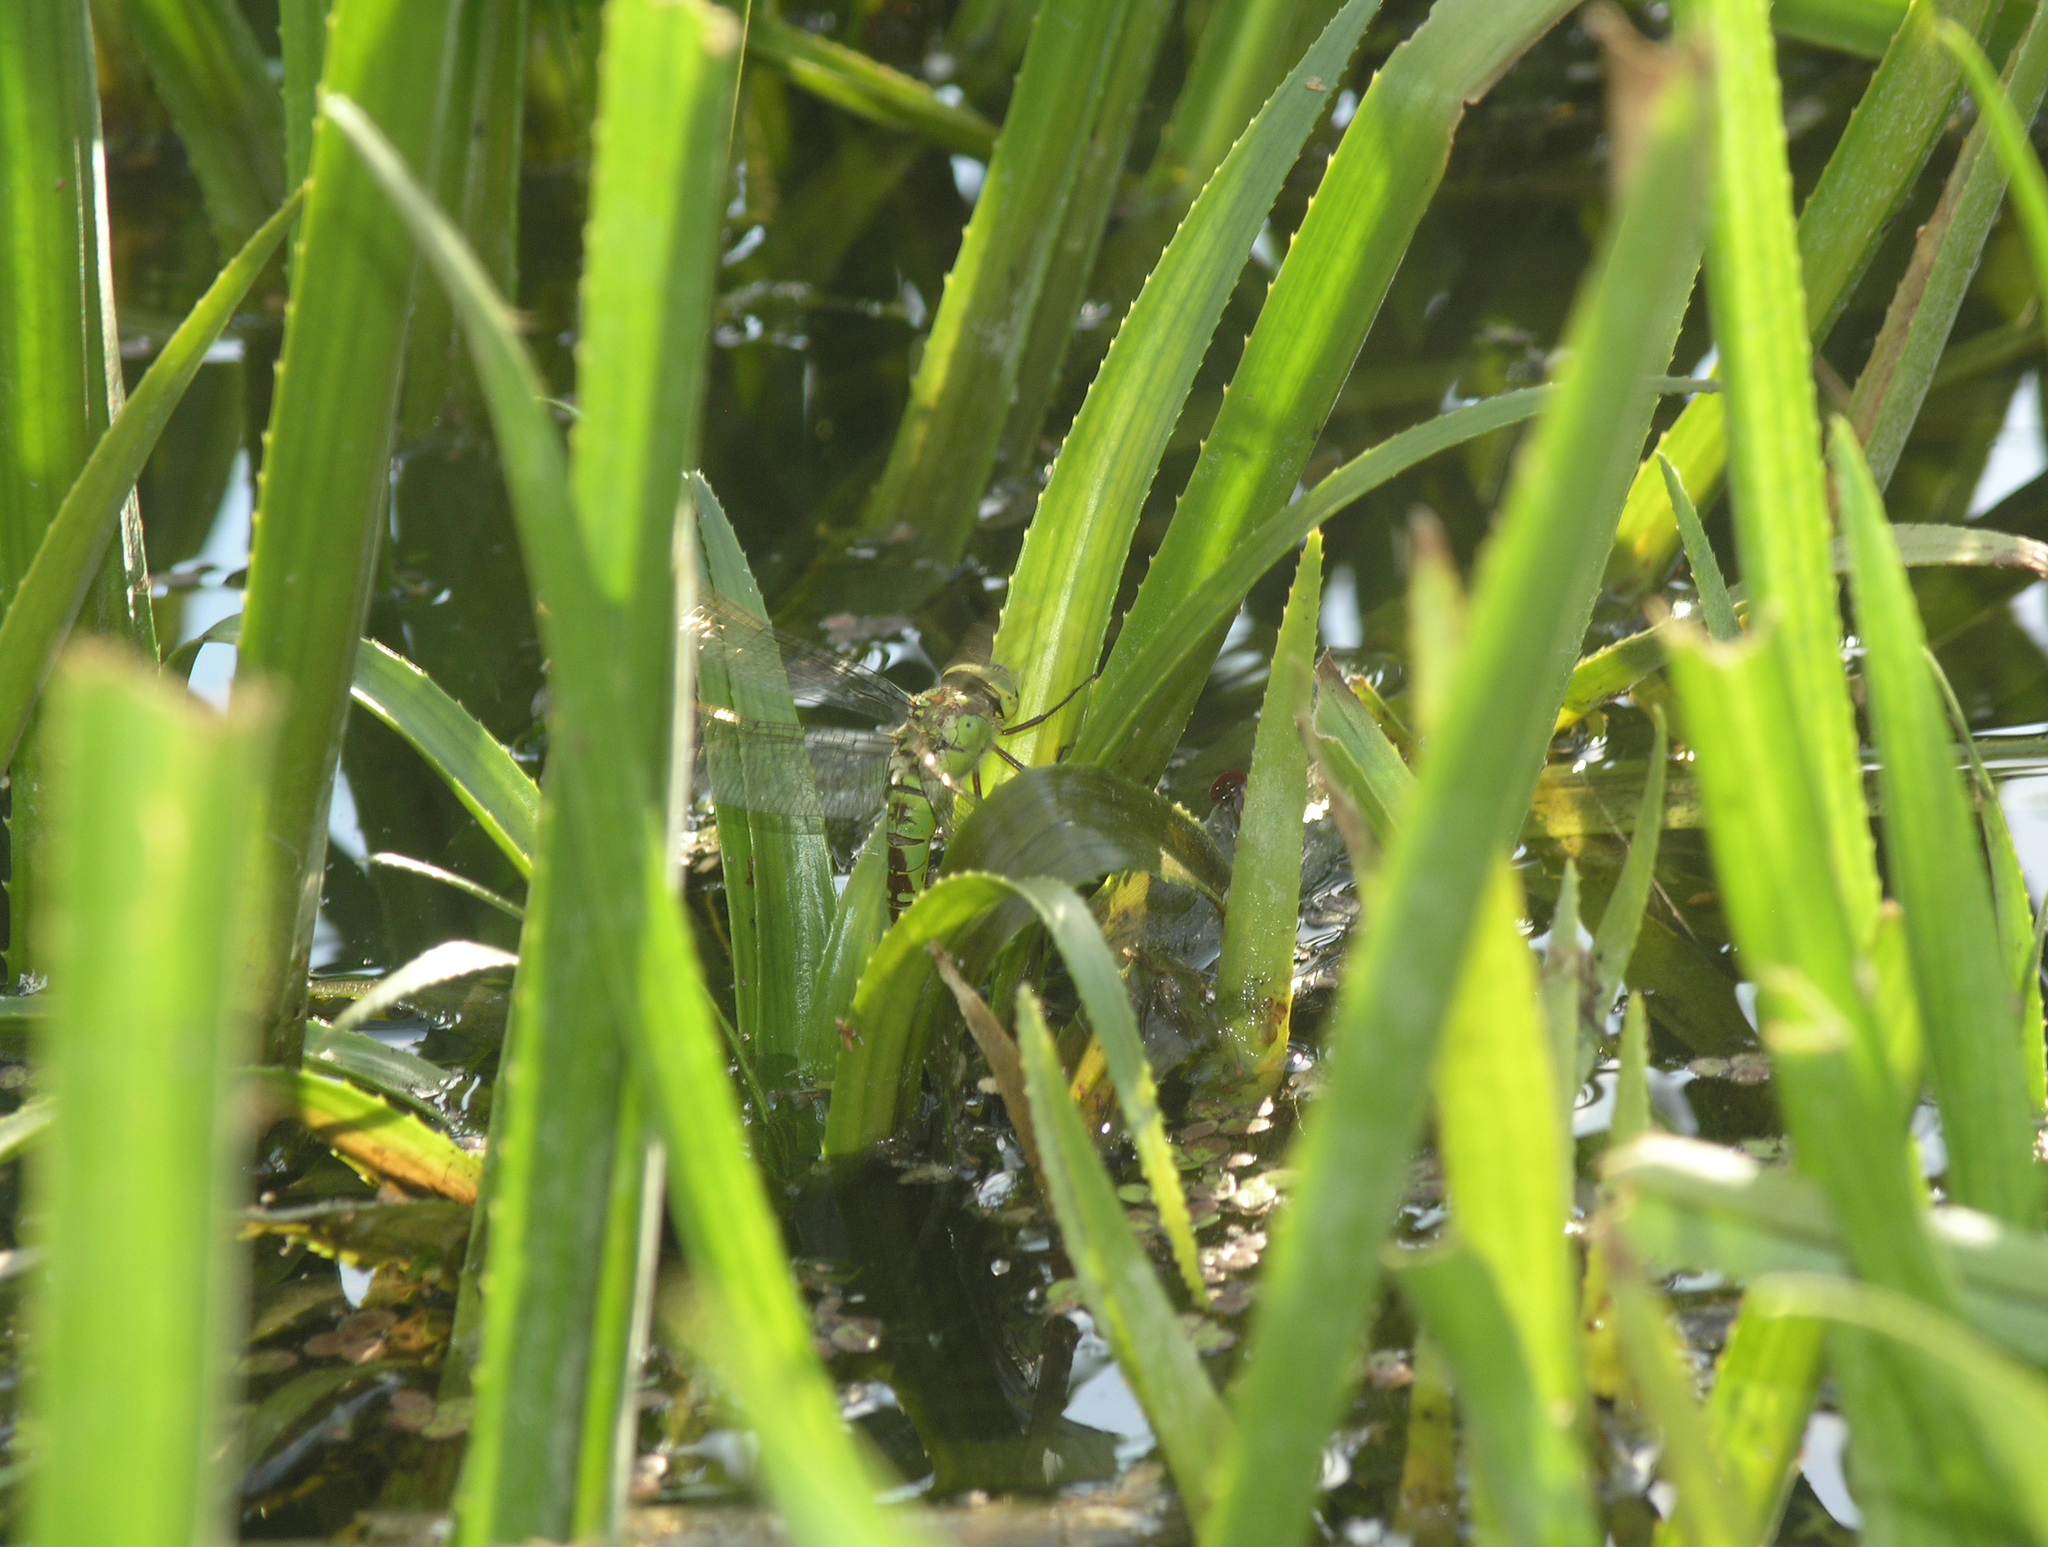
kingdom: Plantae
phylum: Tracheophyta
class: Liliopsida
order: Alismatales
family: Hydrocharitaceae
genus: Stratiotes
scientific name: Stratiotes aloides
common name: Water-soldier
